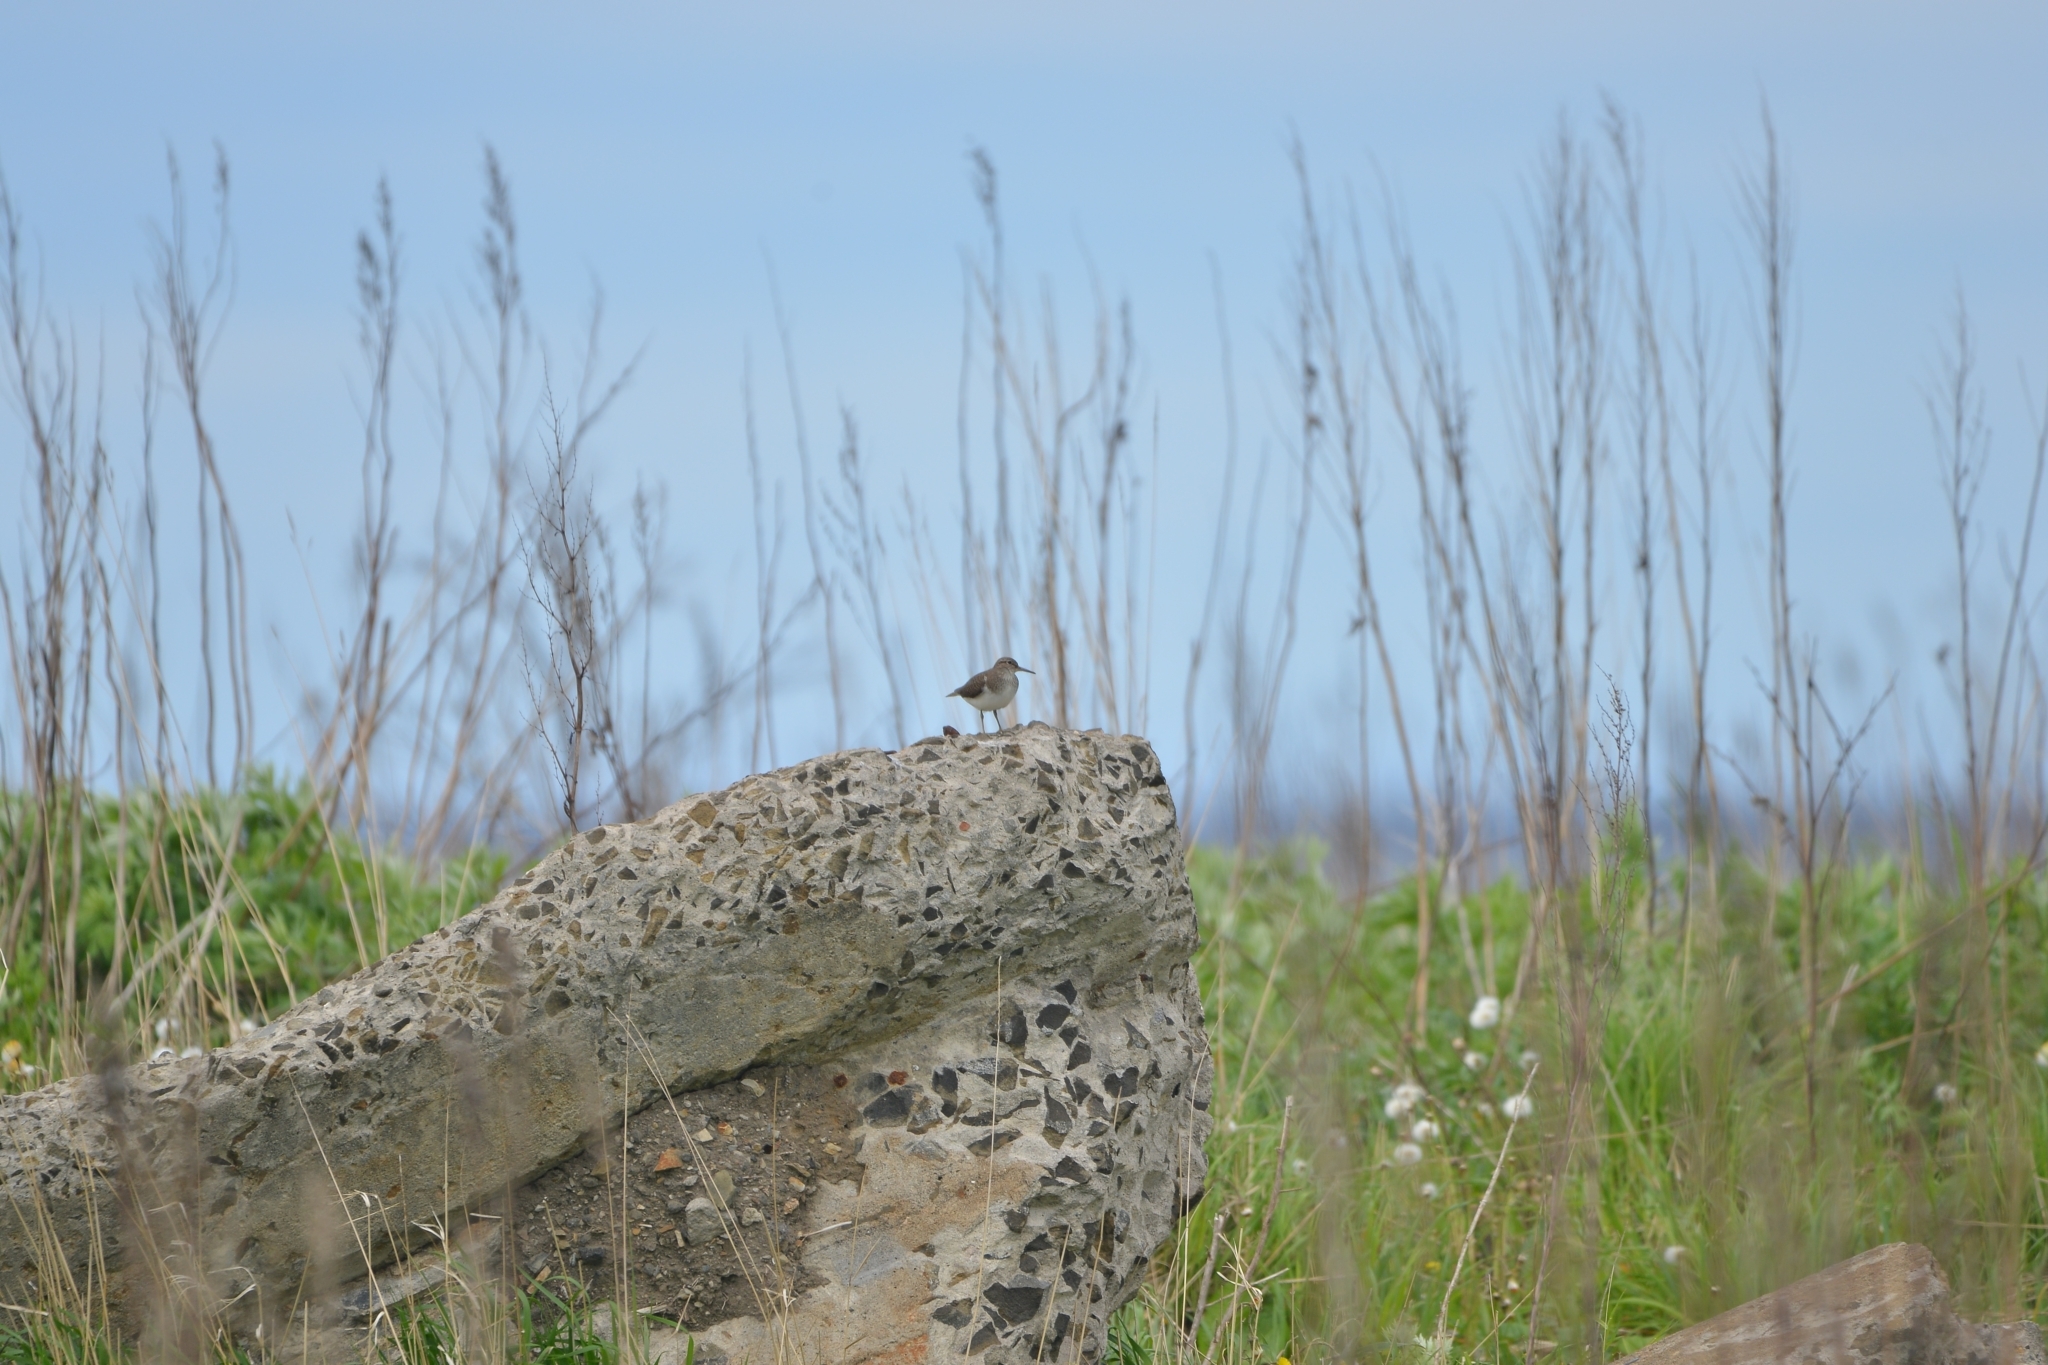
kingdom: Animalia
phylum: Chordata
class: Aves
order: Charadriiformes
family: Scolopacidae
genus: Actitis
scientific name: Actitis hypoleucos
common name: Common sandpiper
